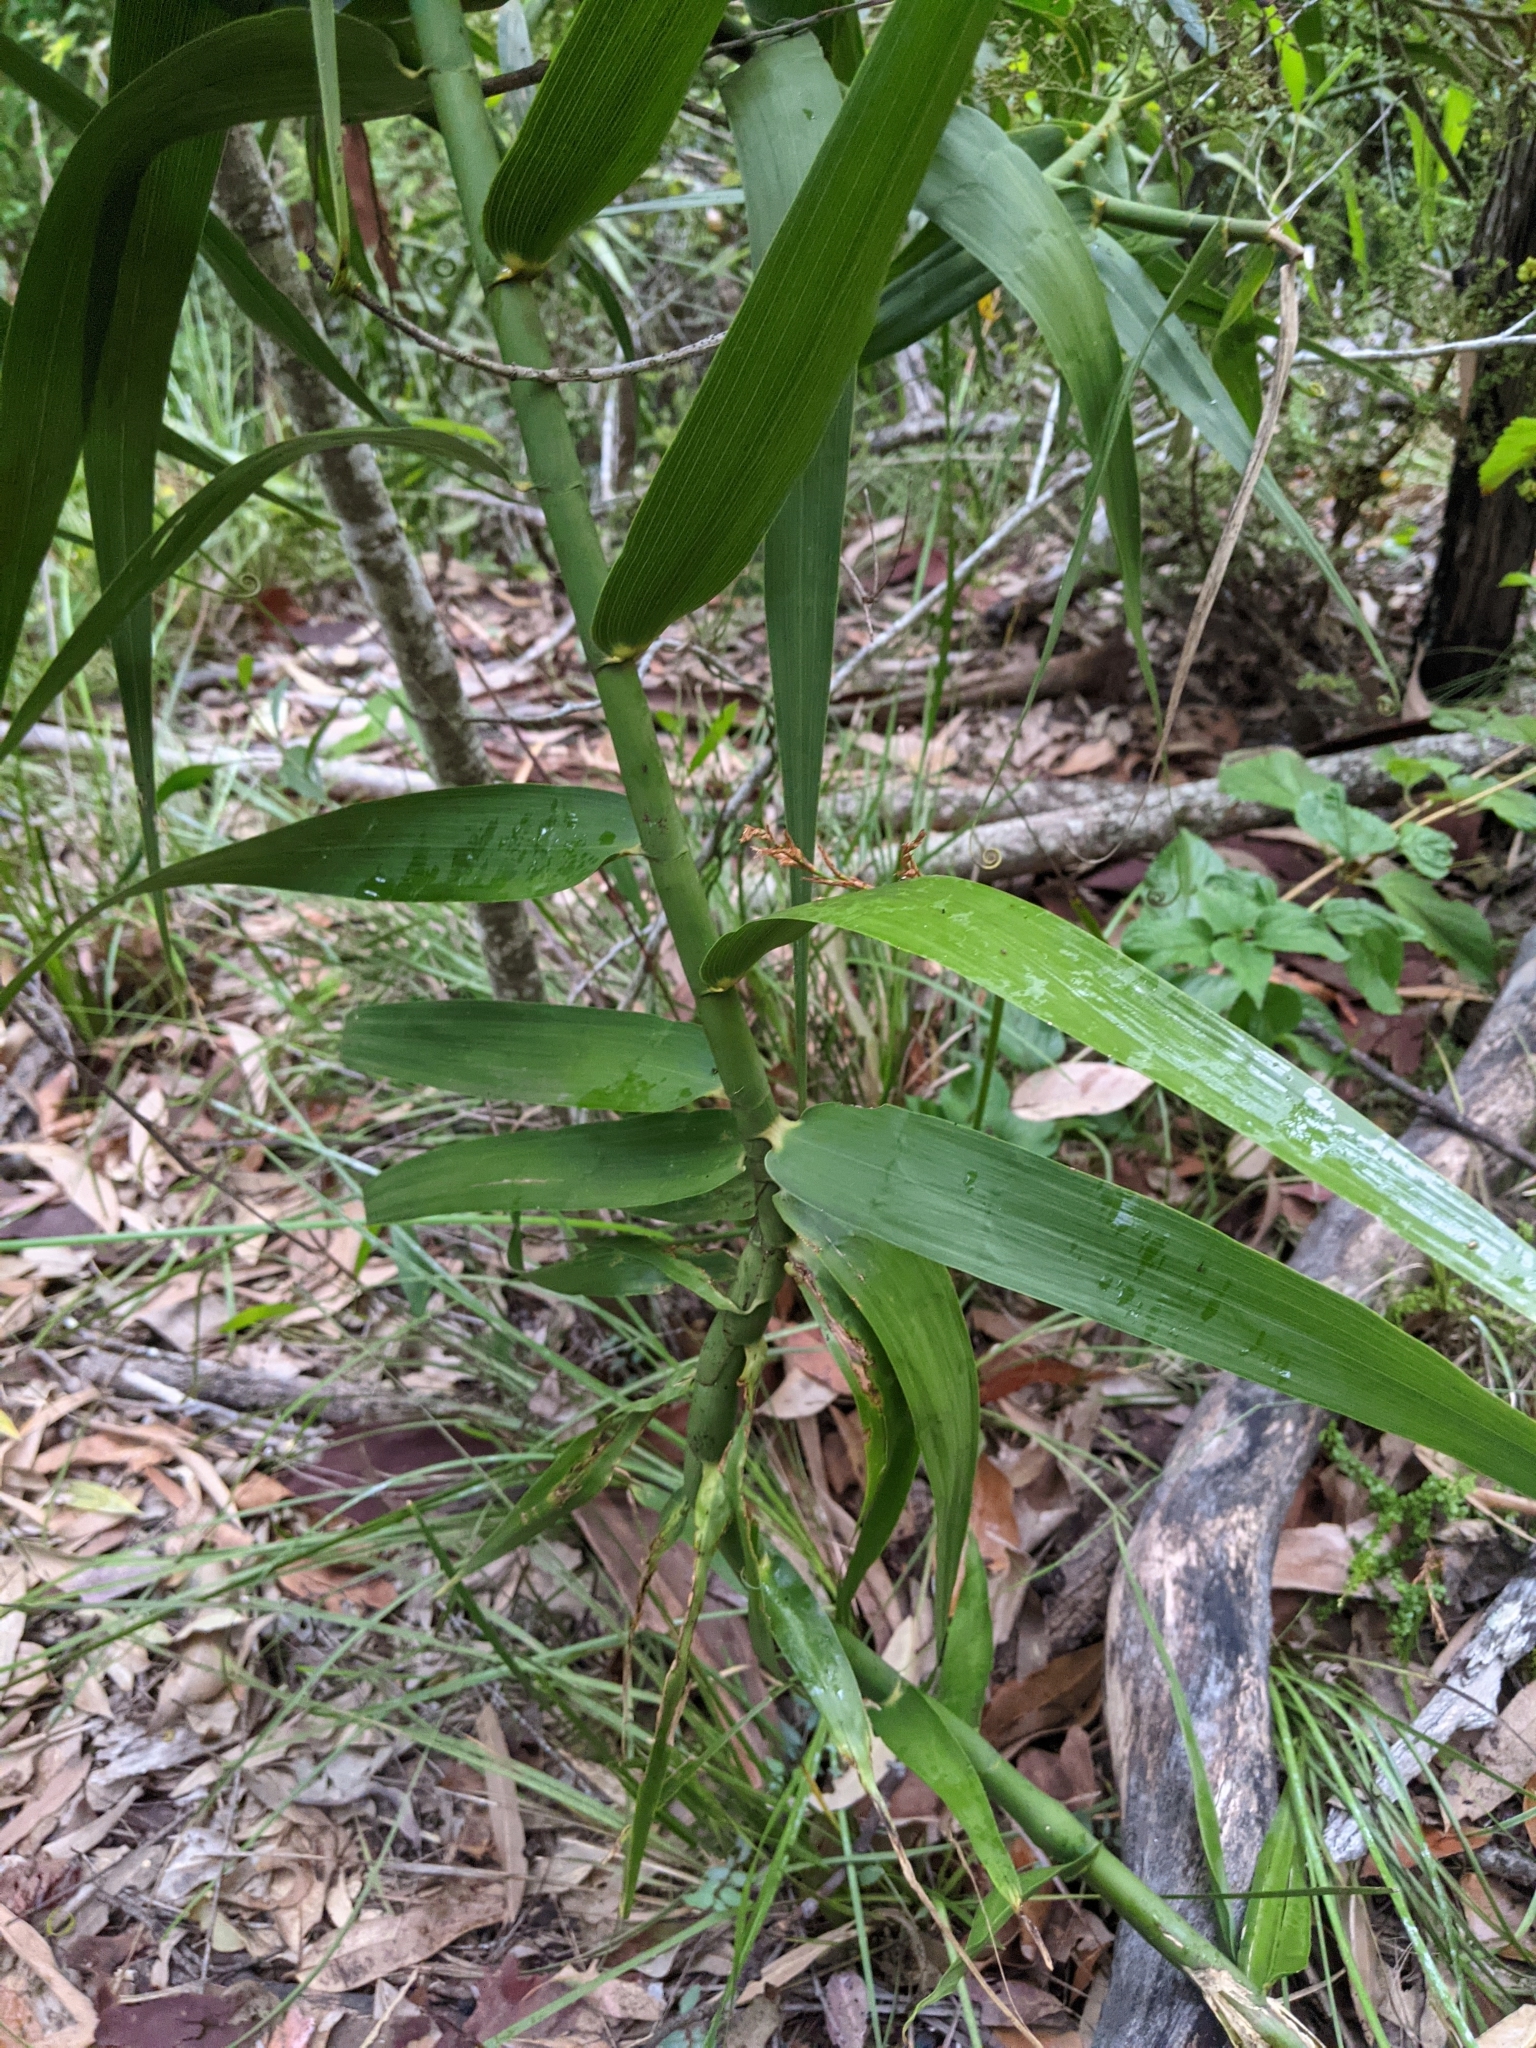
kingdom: Plantae
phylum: Tracheophyta
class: Liliopsida
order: Poales
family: Flagellariaceae
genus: Flagellaria
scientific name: Flagellaria indica
